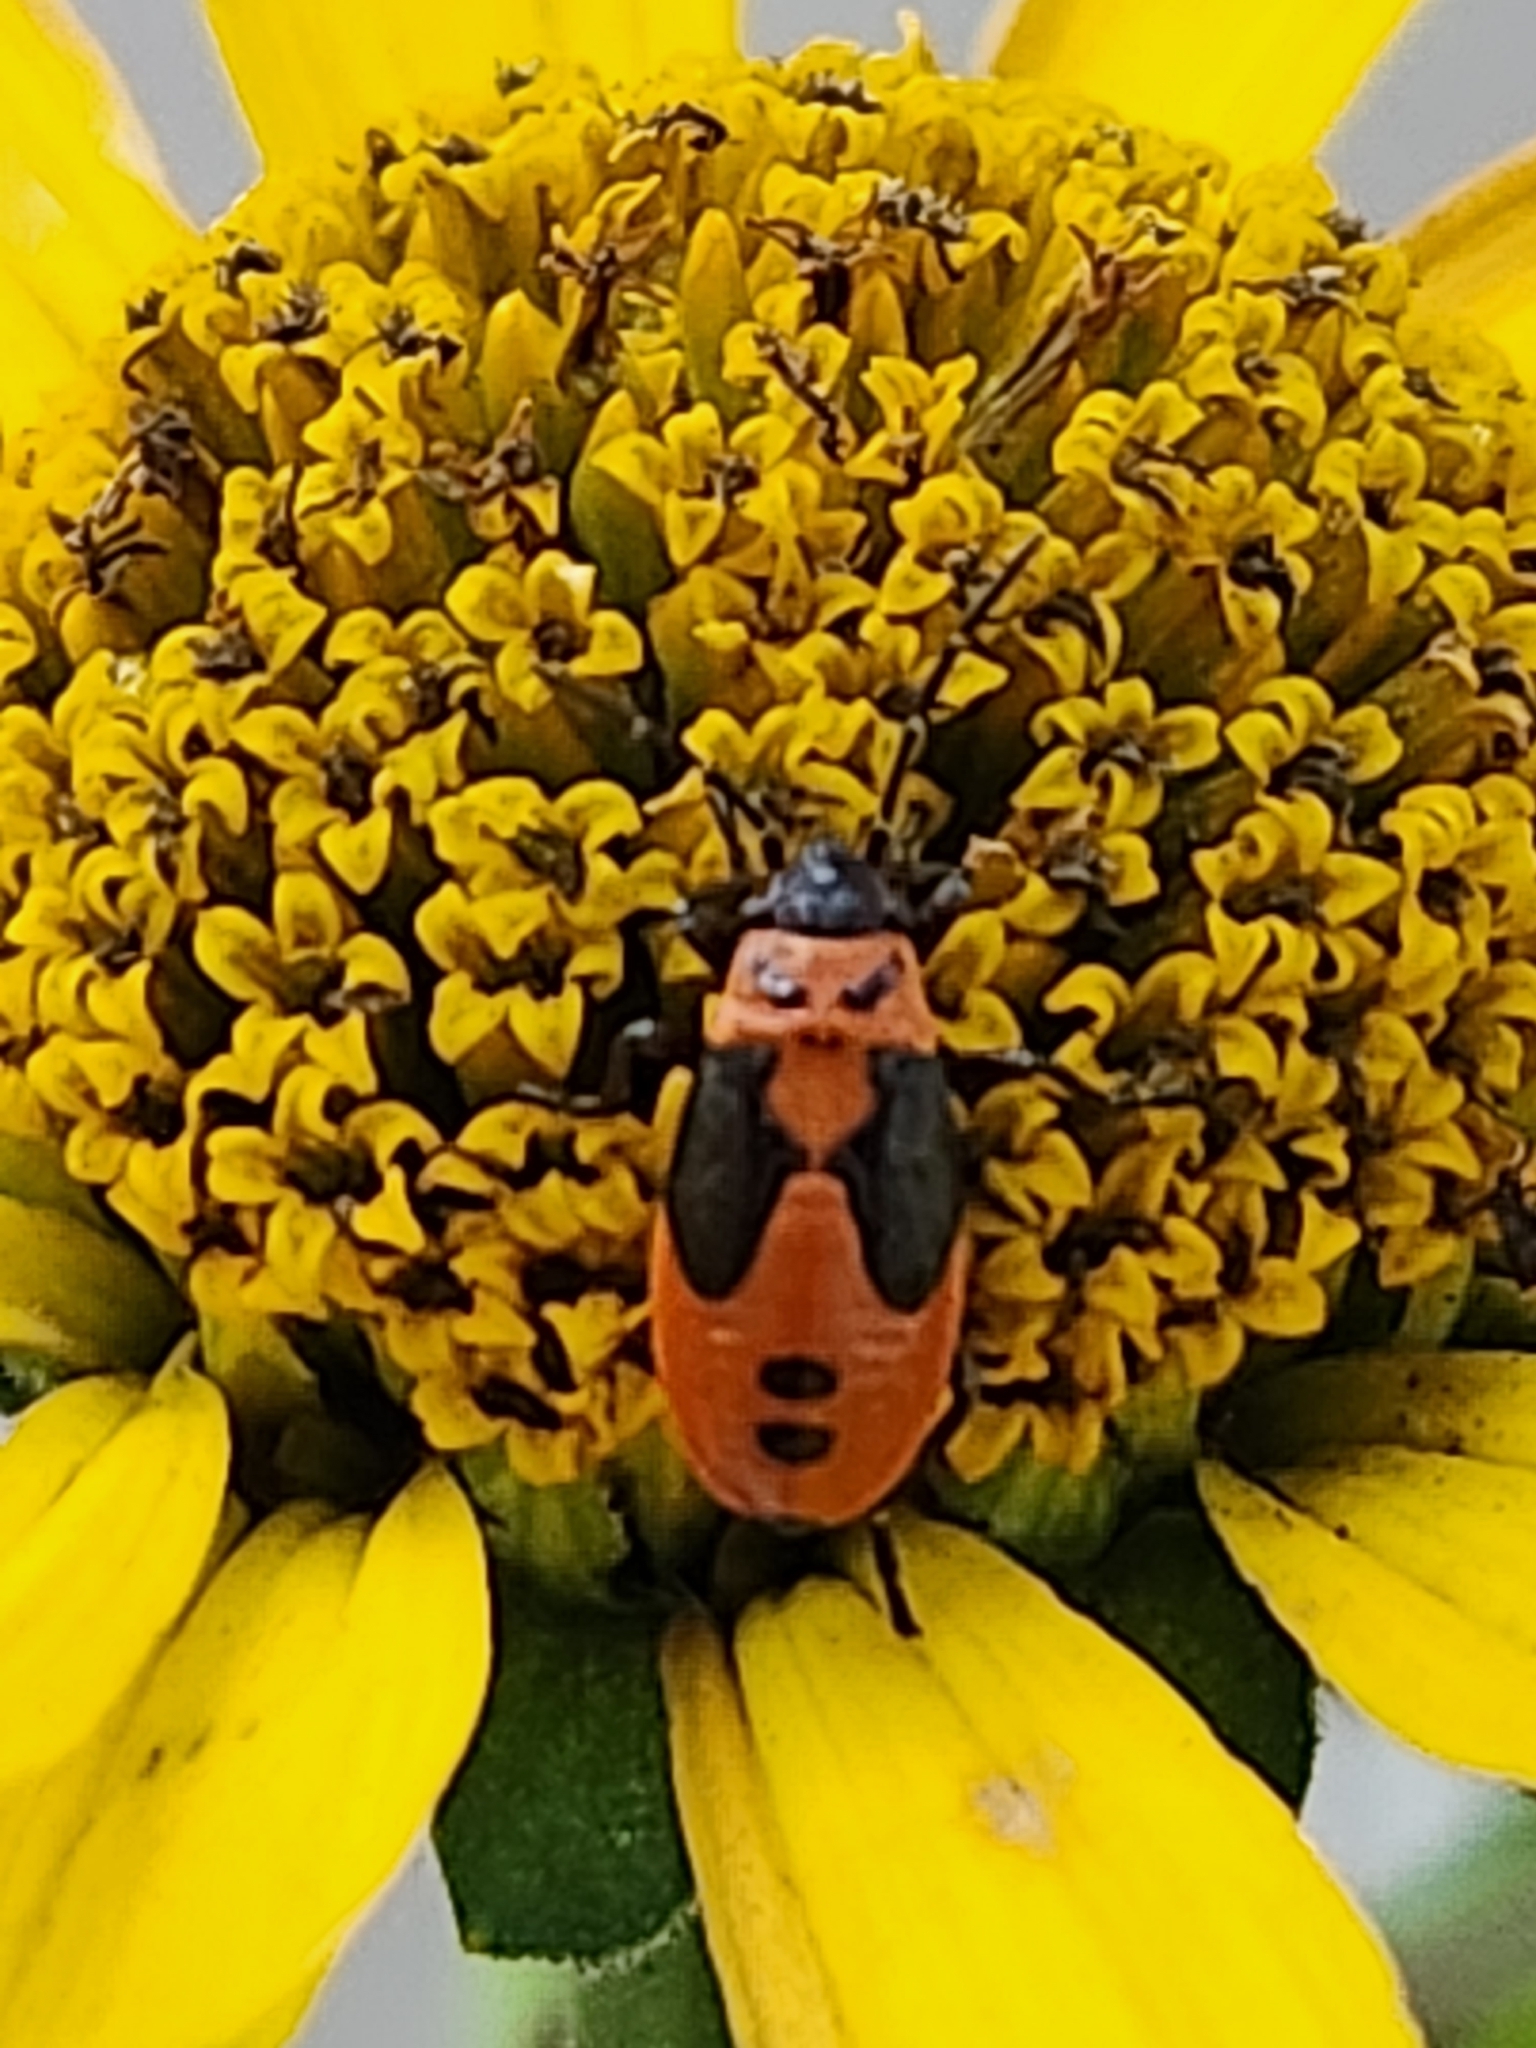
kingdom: Animalia
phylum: Arthropoda
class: Insecta
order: Hemiptera
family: Lygaeidae
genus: Lygaeus
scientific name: Lygaeus turcicus
